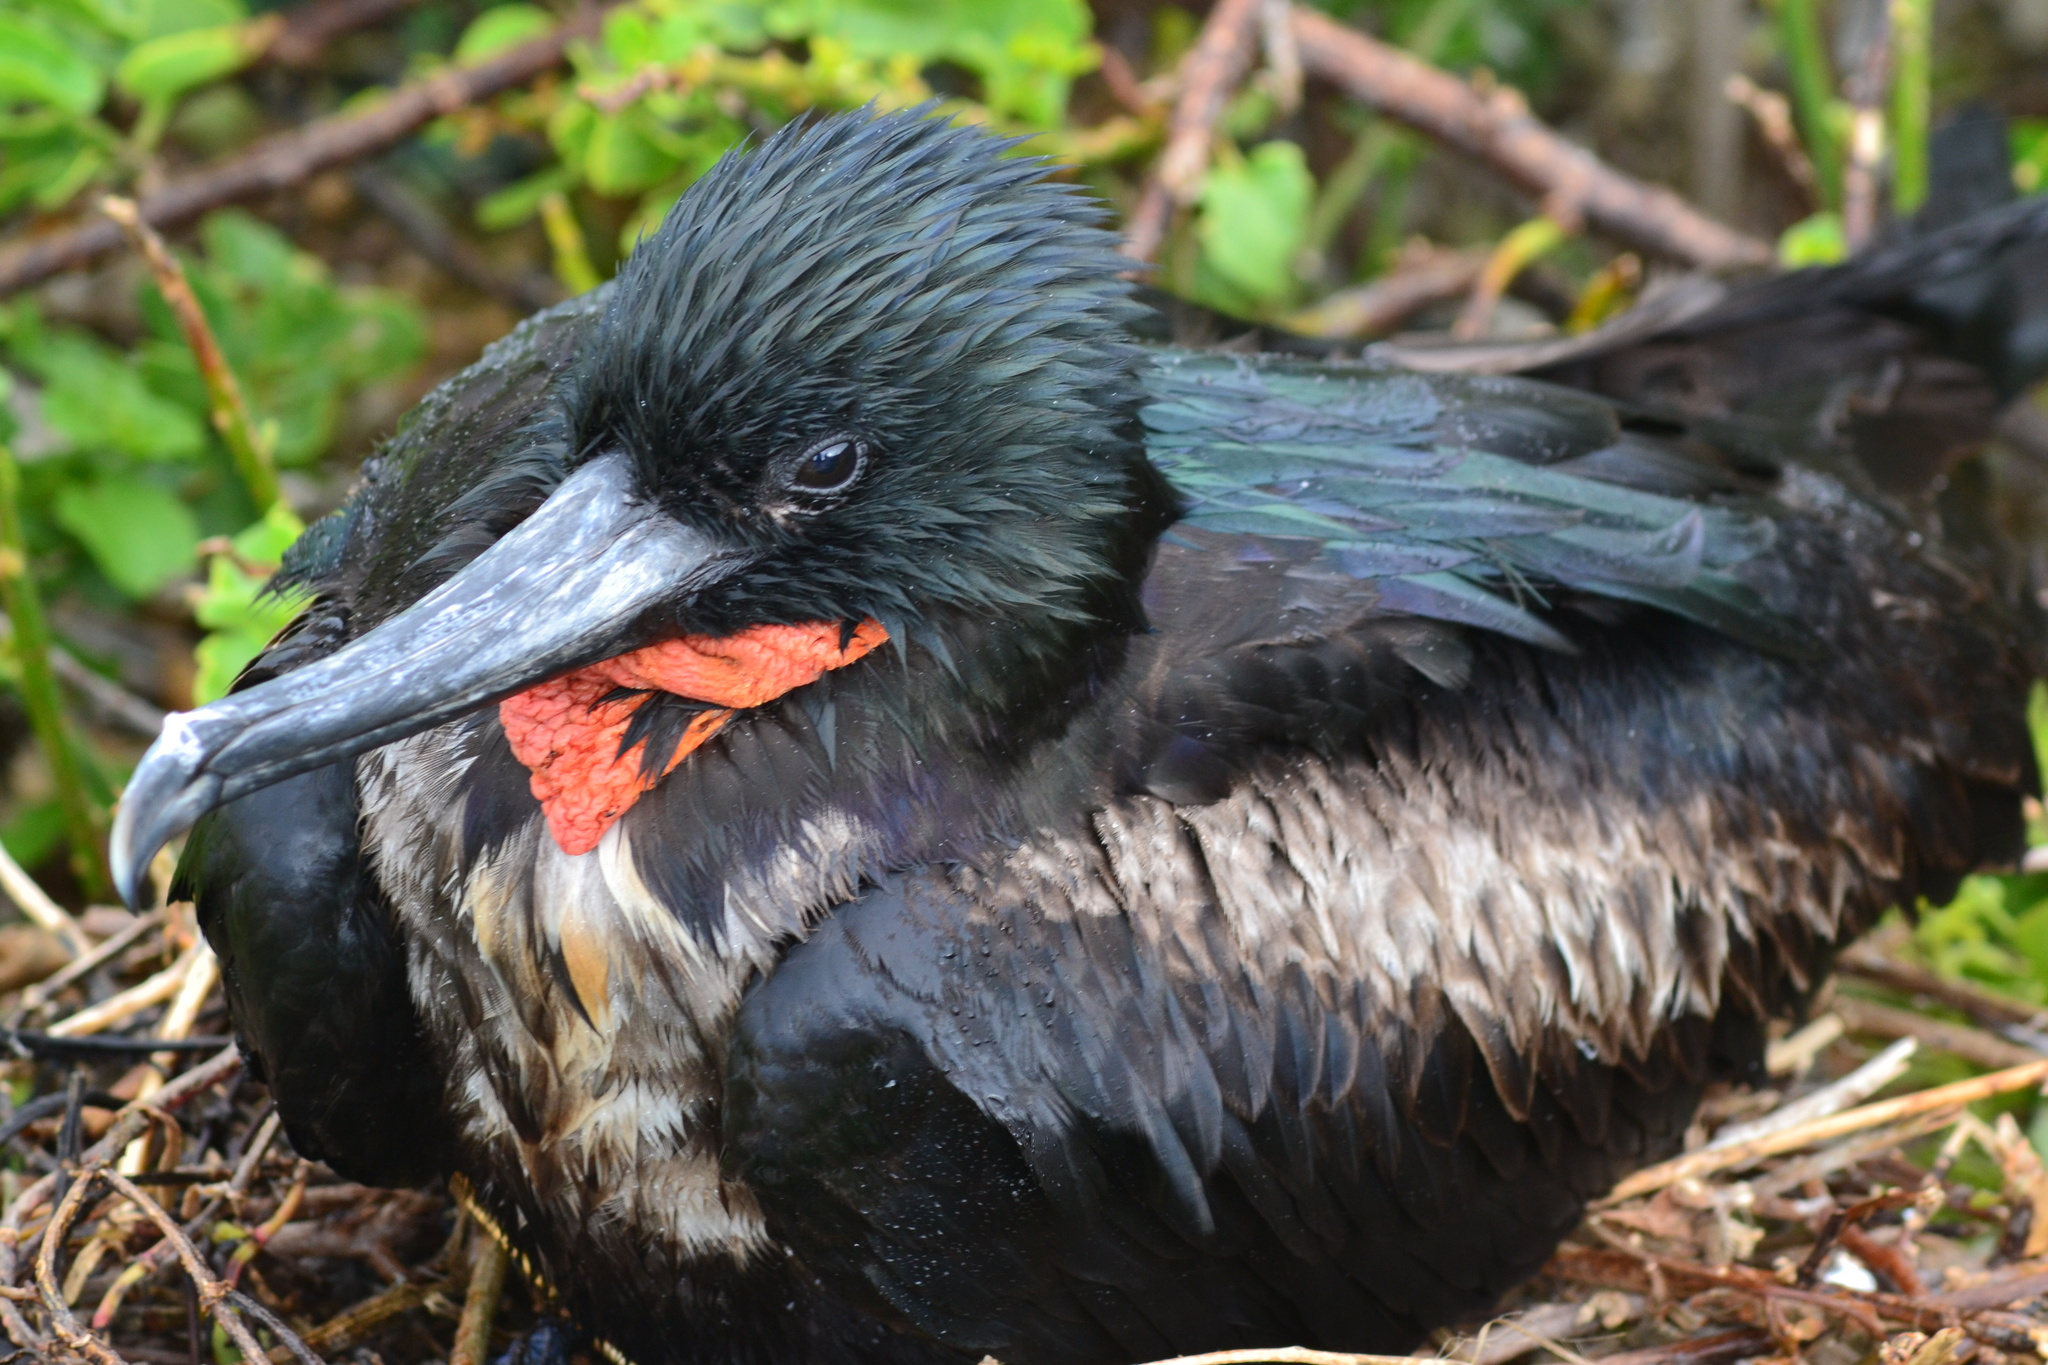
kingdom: Animalia
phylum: Chordata
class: Aves
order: Suliformes
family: Fregatidae
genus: Fregata
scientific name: Fregata minor
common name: Great frigatebird
